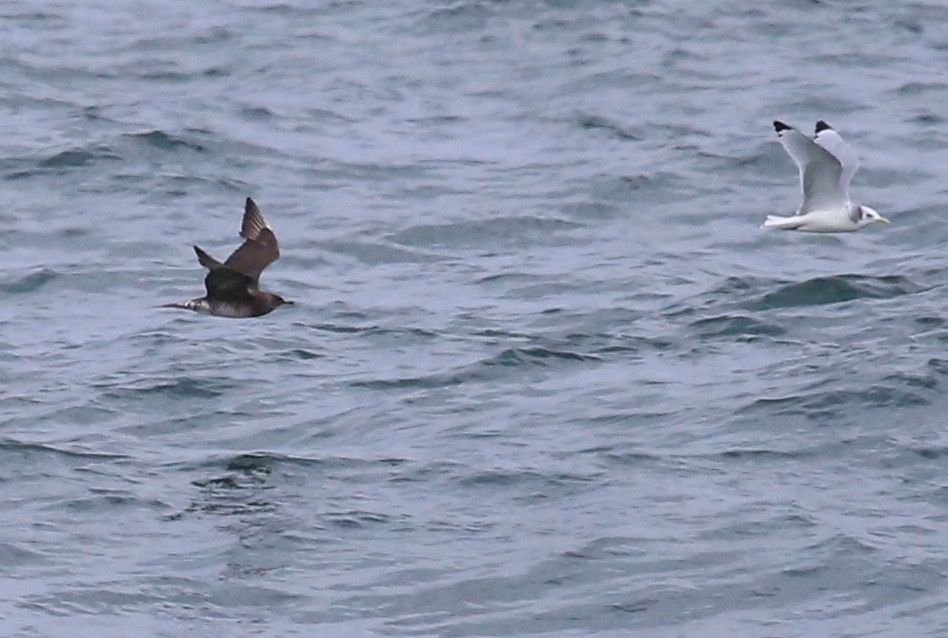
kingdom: Animalia
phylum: Chordata
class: Aves
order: Charadriiformes
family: Laridae
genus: Rissa
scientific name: Rissa tridactyla
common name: Black-legged kittiwake
